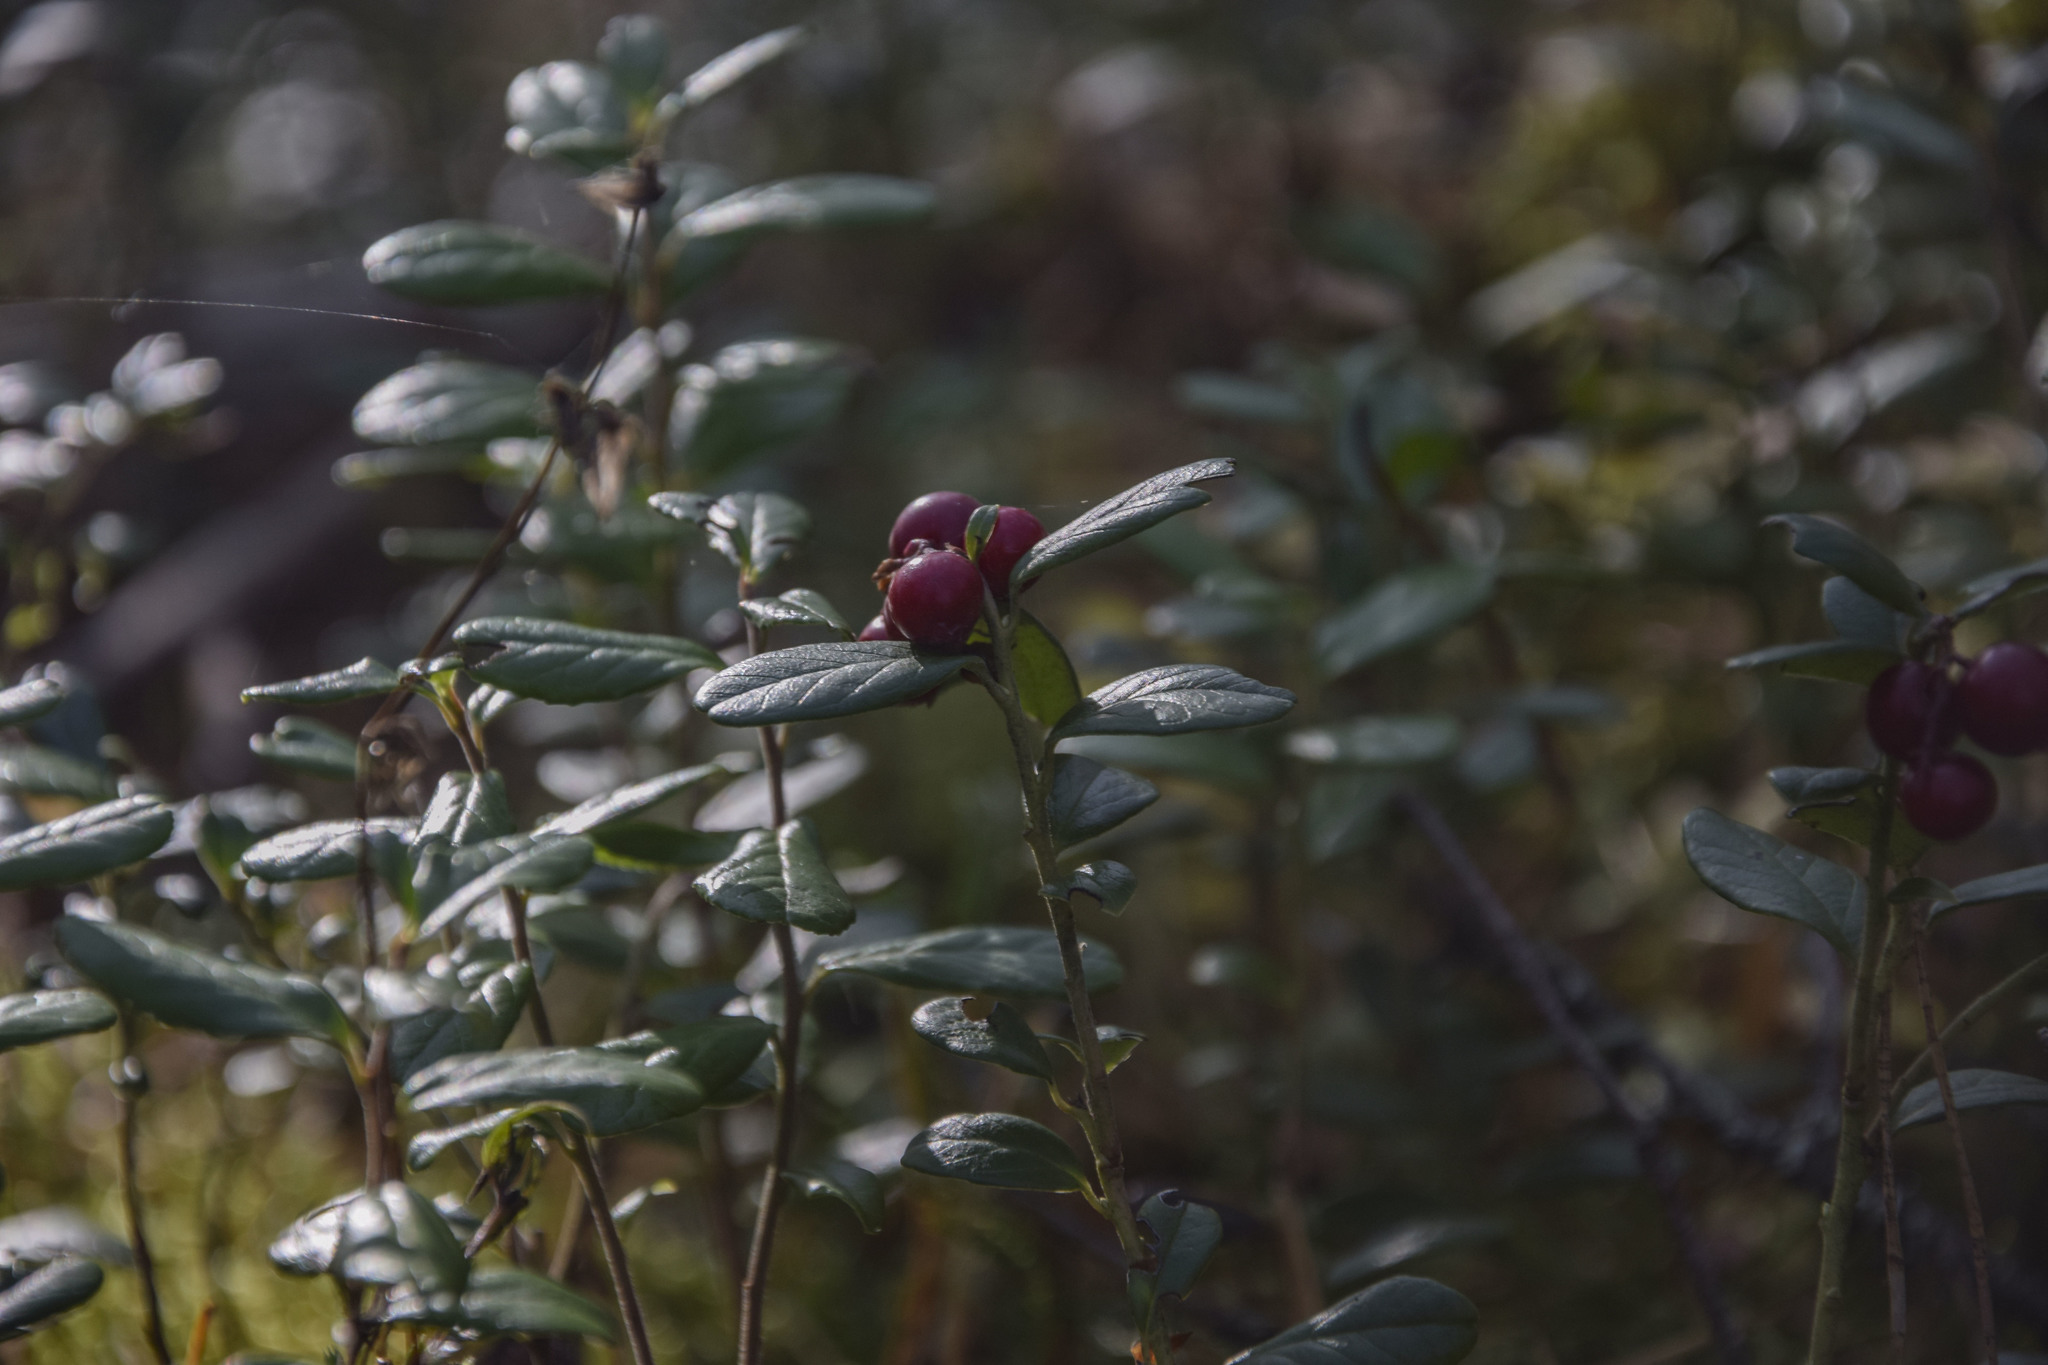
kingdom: Plantae
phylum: Tracheophyta
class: Magnoliopsida
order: Ericales
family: Ericaceae
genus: Vaccinium
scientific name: Vaccinium vitis-idaea
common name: Cowberry
